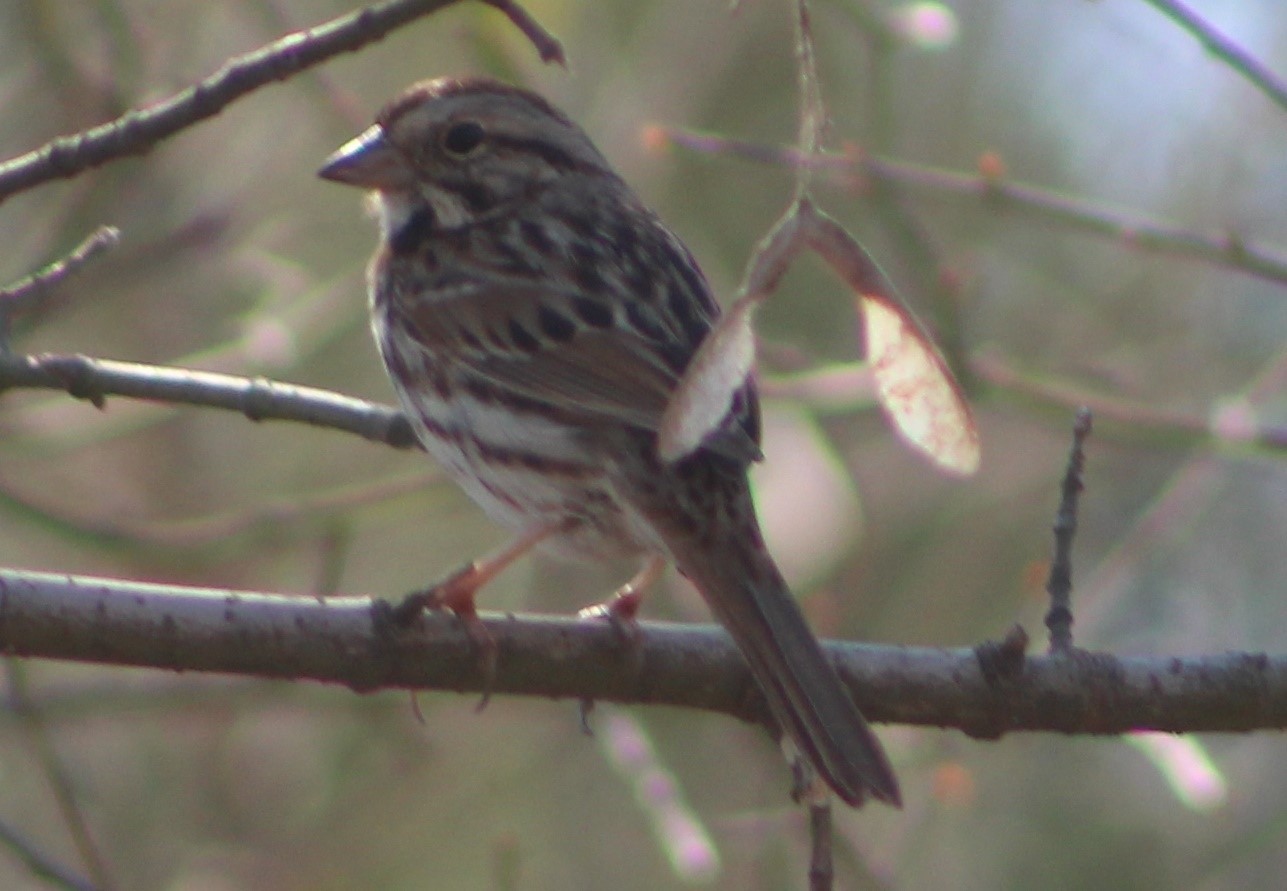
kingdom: Animalia
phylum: Chordata
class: Aves
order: Passeriformes
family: Passerellidae
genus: Melospiza
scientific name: Melospiza melodia
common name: Song sparrow
